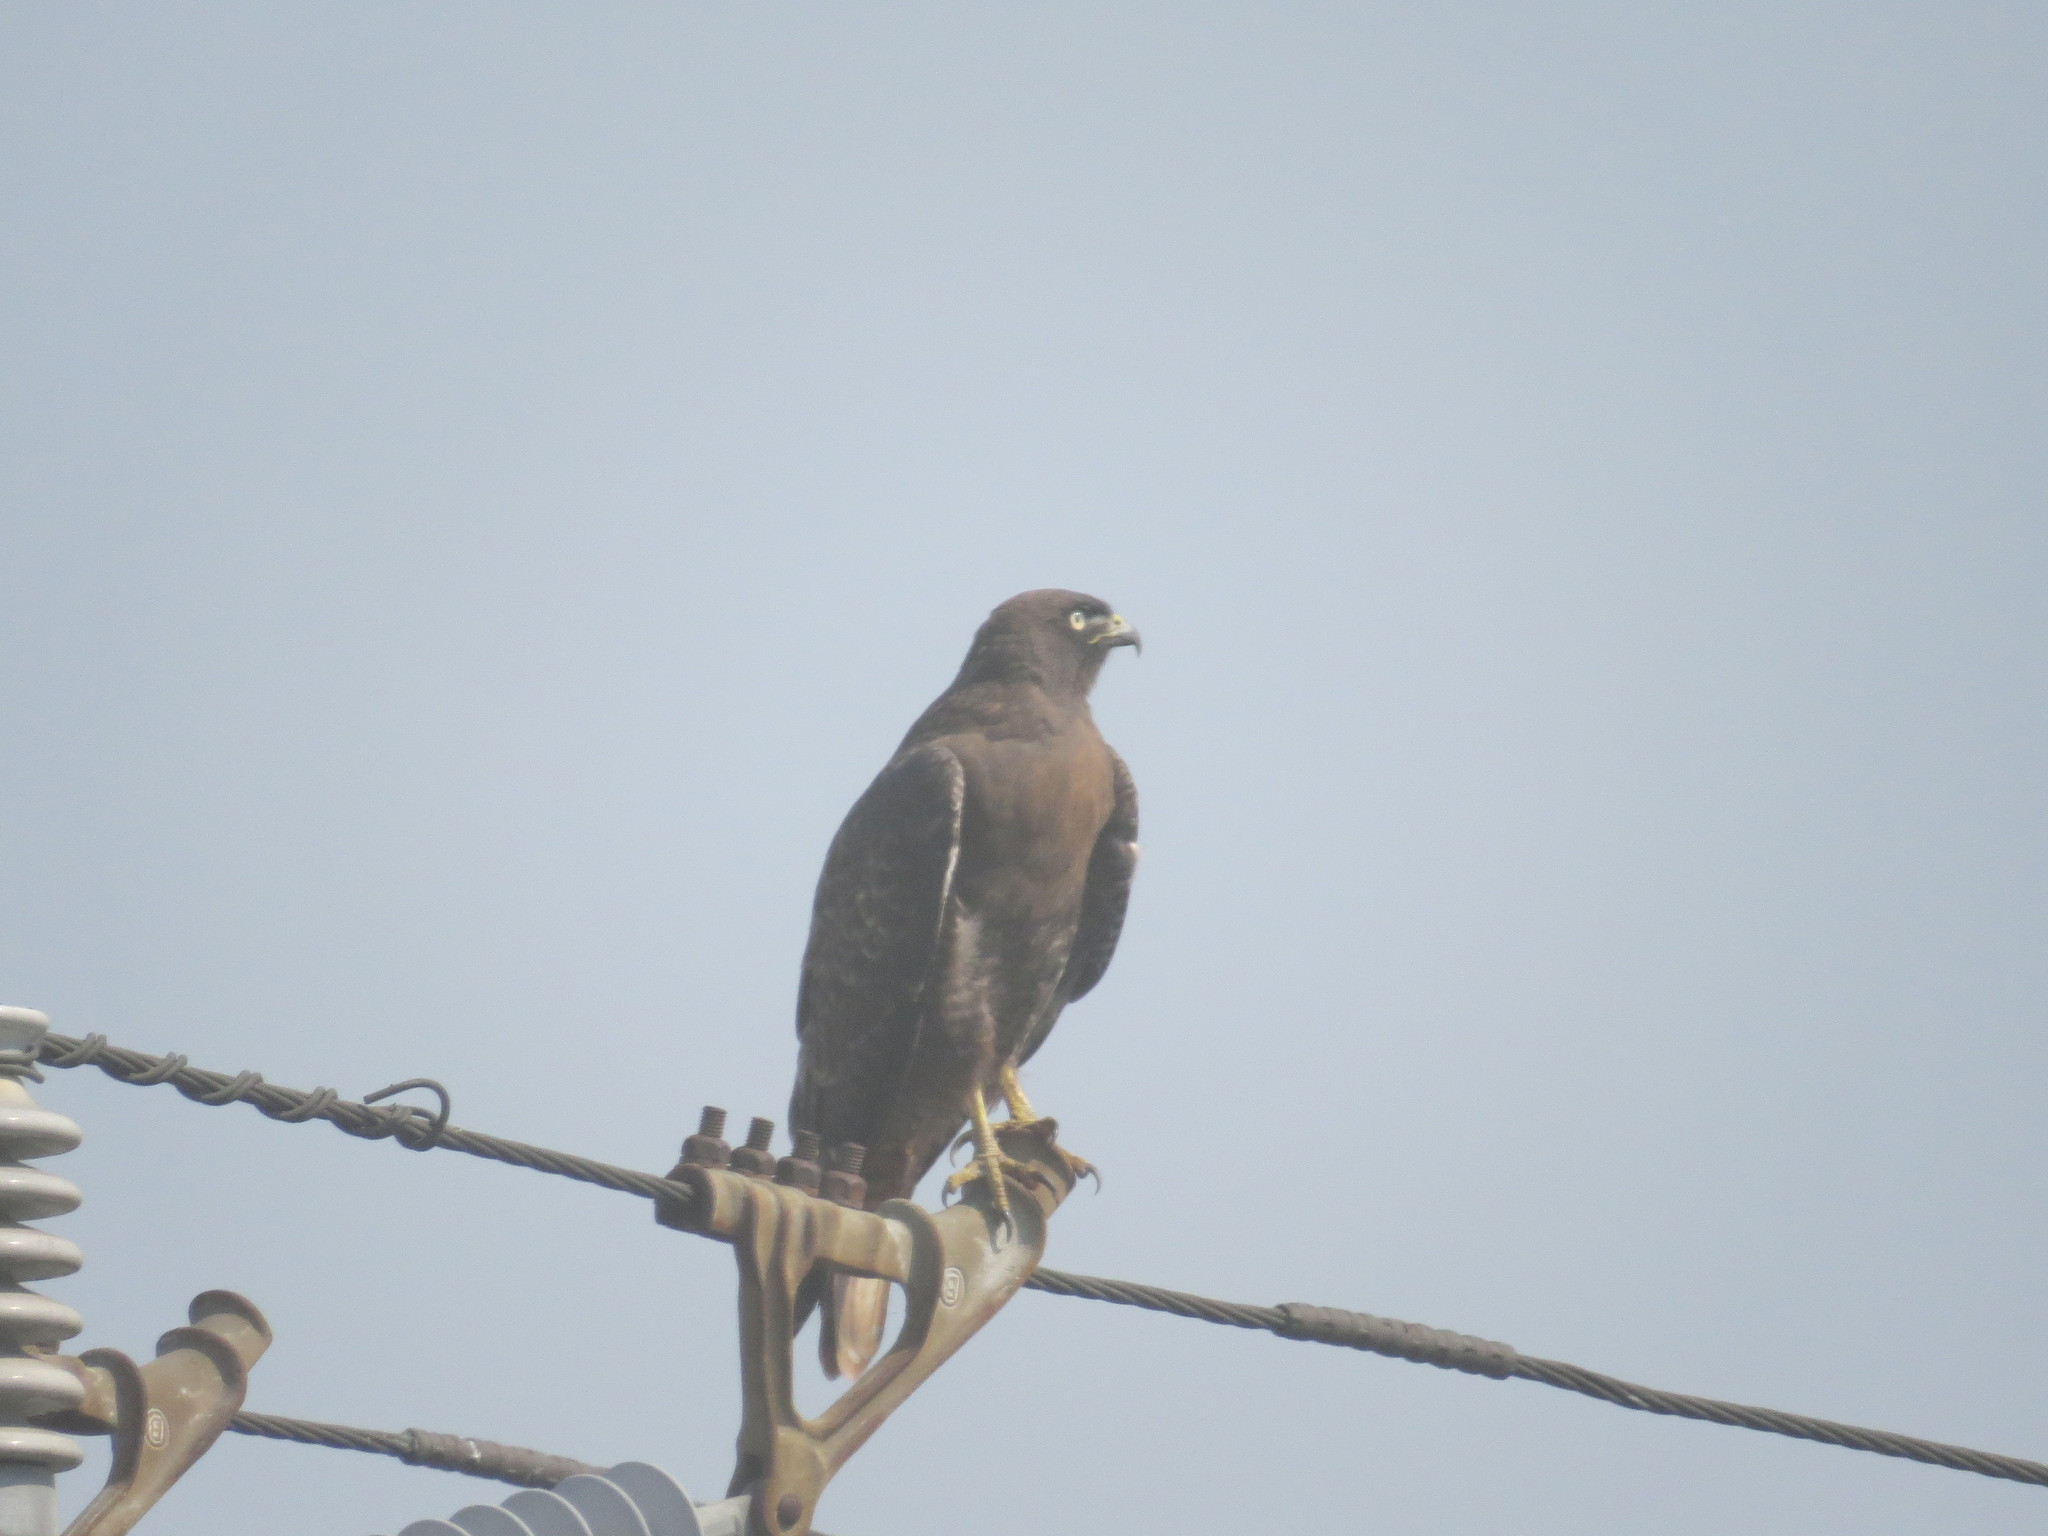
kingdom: Animalia
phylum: Chordata
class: Aves
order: Accipitriformes
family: Accipitridae
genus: Buteo
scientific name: Buteo jamaicensis
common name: Red-tailed hawk
